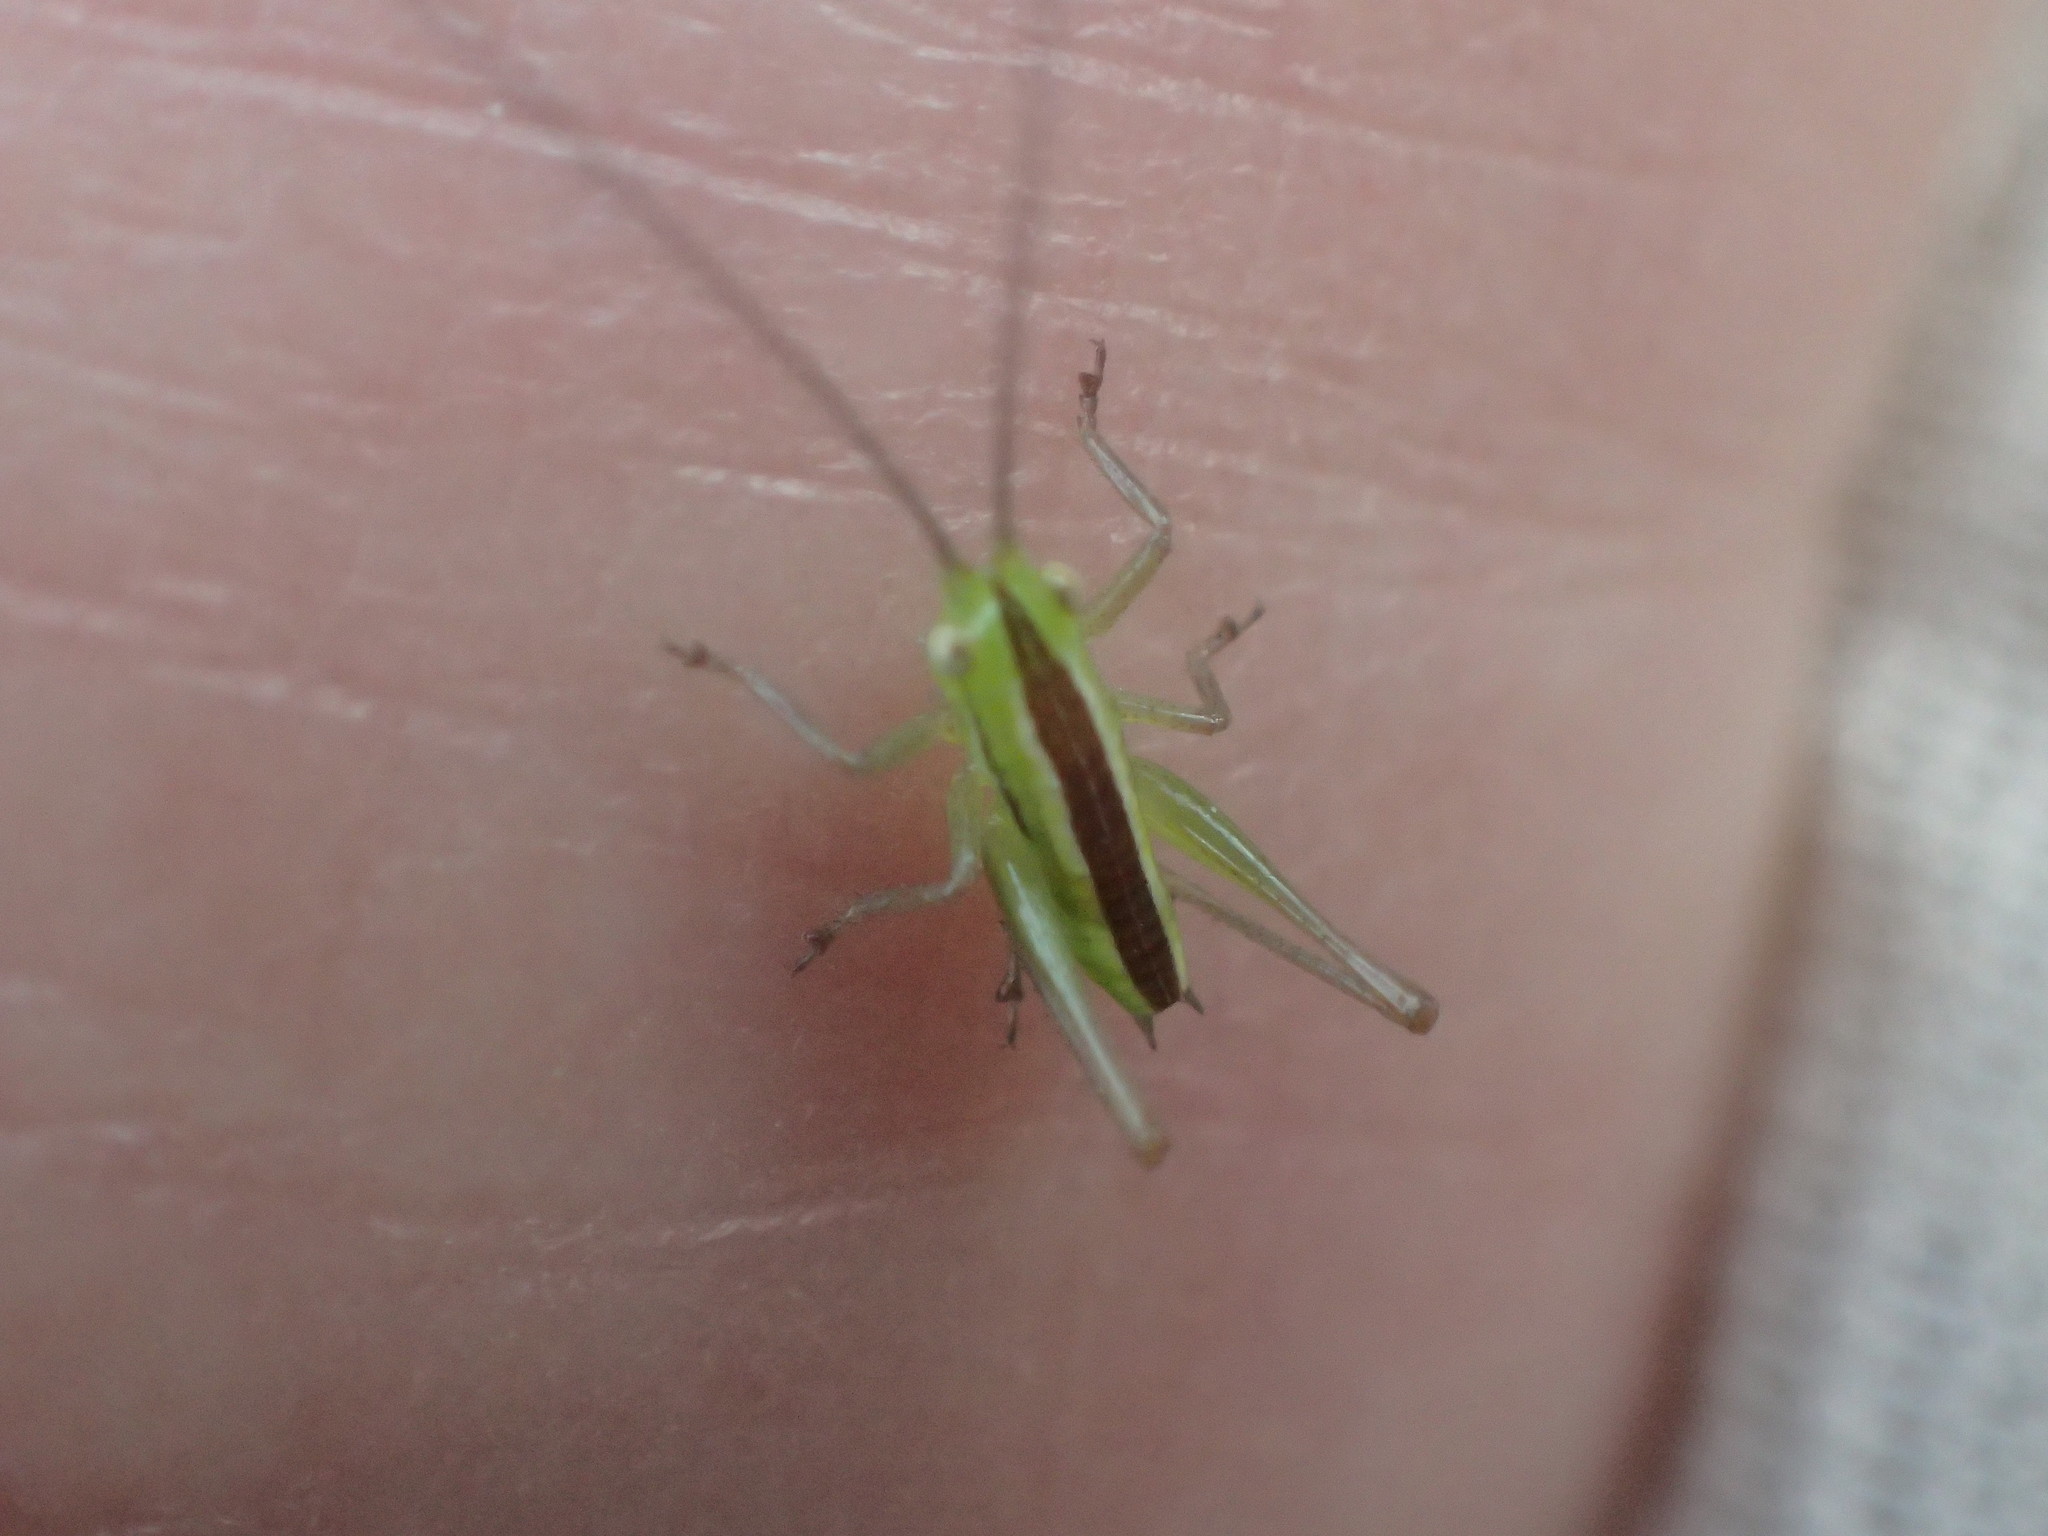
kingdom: Animalia
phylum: Arthropoda
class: Insecta
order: Orthoptera
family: Tettigoniidae
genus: Conocephalus
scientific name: Conocephalus bilineatus
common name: Small meadow katydid
